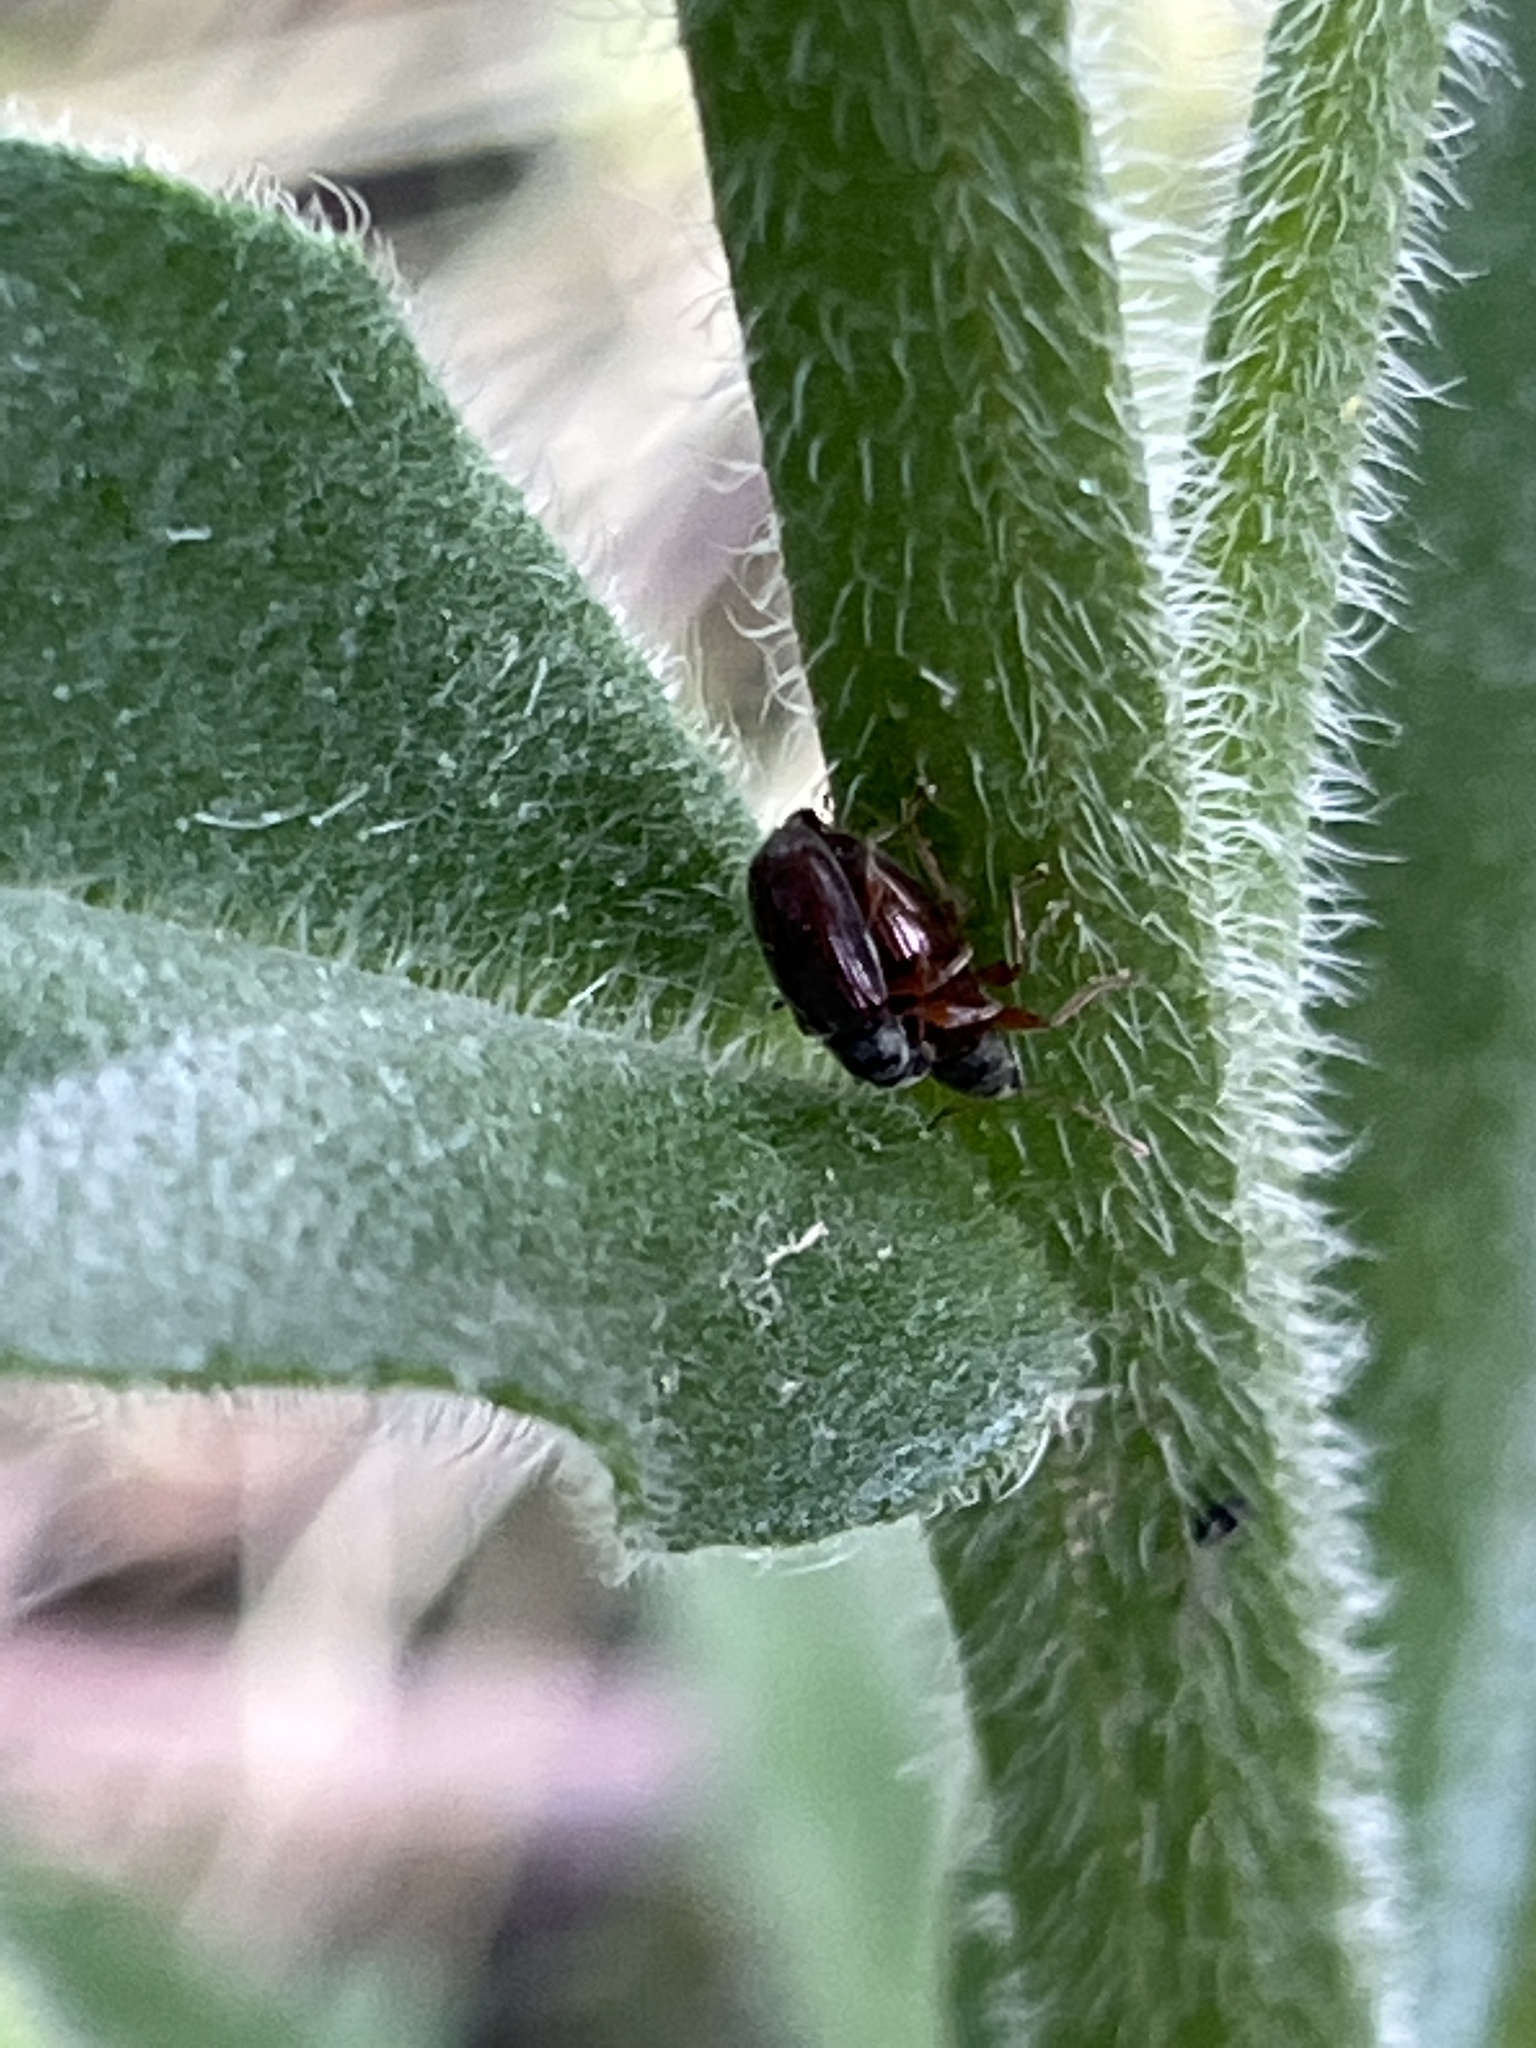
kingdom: Animalia
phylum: Arthropoda
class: Insecta
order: Coleoptera
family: Curculionidae
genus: Phyllobius
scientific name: Phyllobius oblongus
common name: Brown leaf weevil
